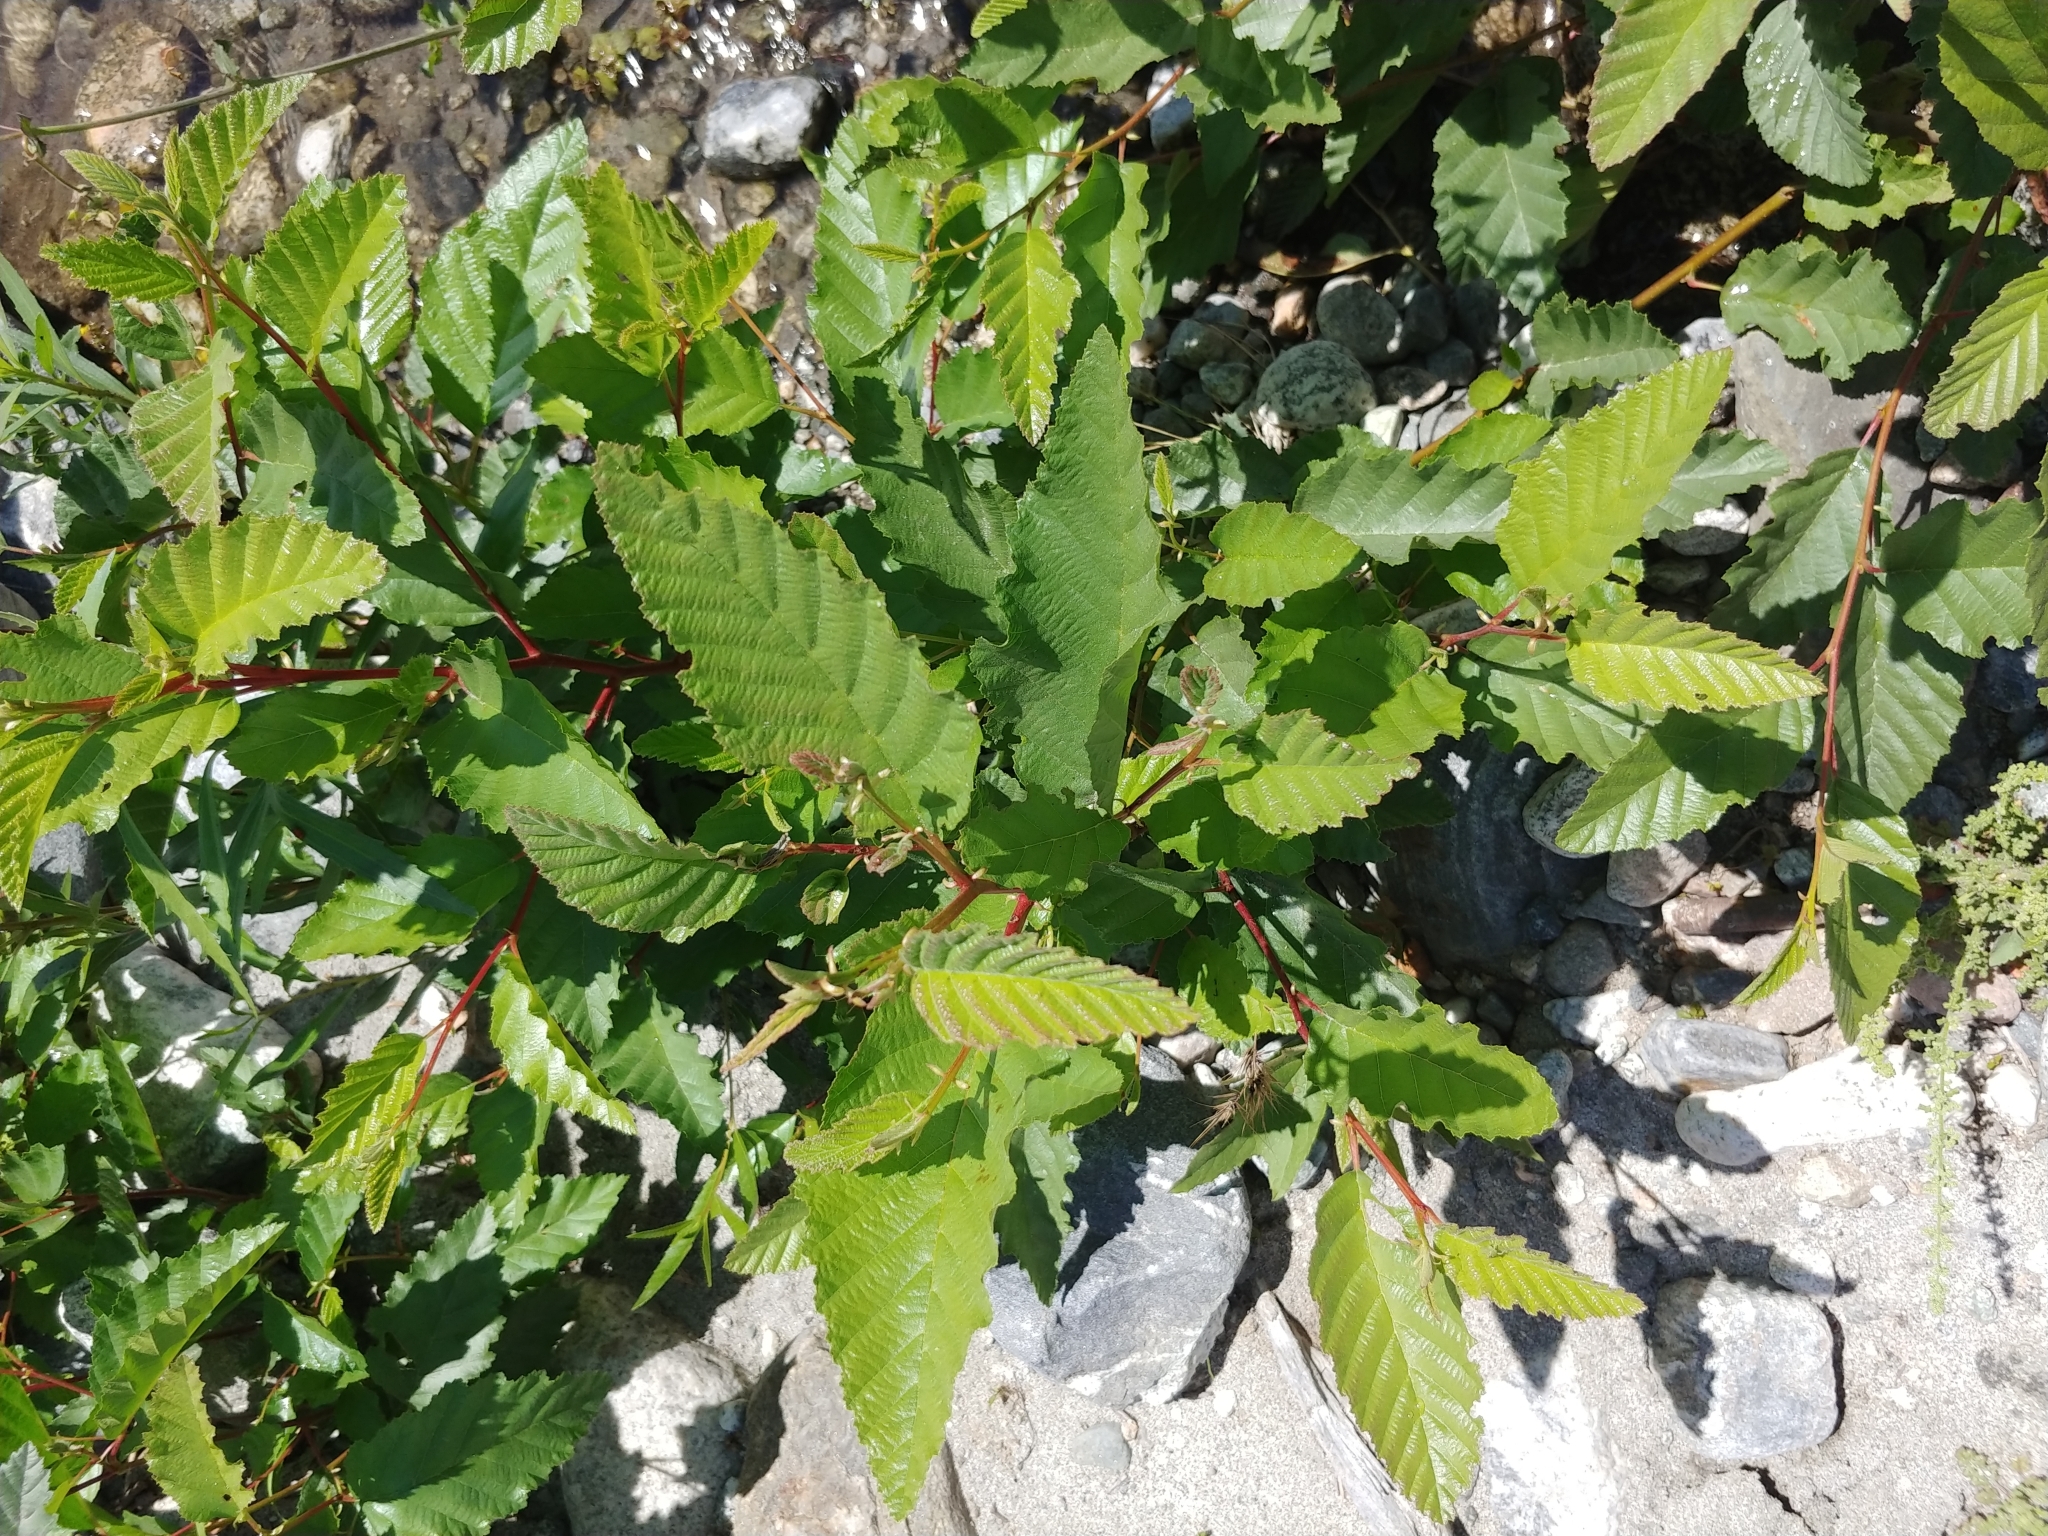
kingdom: Plantae
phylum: Tracheophyta
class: Magnoliopsida
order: Fagales
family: Betulaceae
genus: Alnus
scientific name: Alnus rhombifolia
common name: California alder
